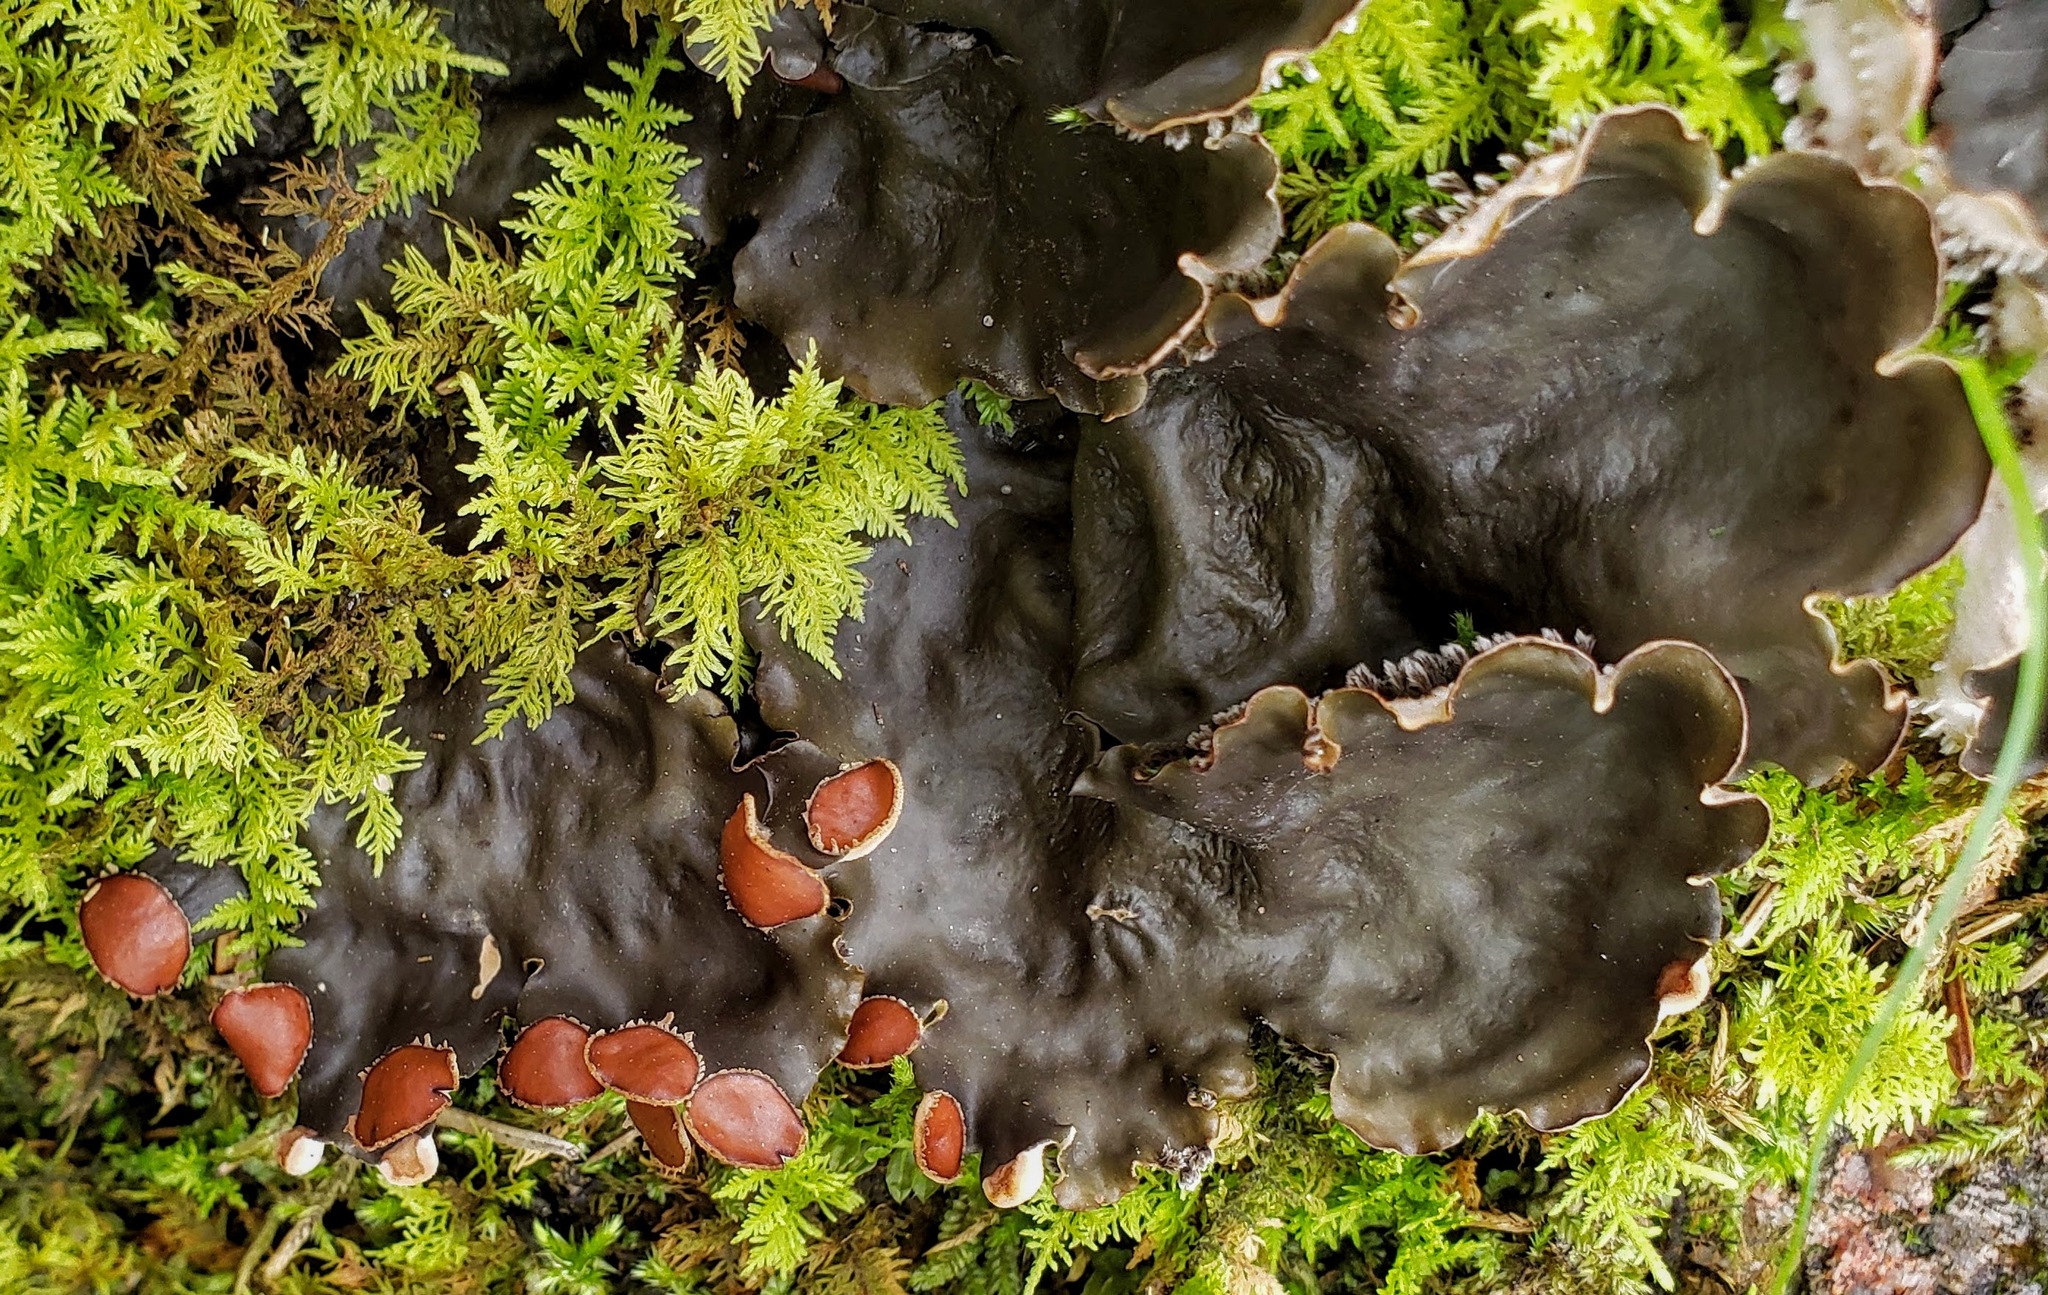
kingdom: Fungi
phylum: Ascomycota
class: Lecanoromycetes
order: Peltigerales
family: Peltigeraceae
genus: Peltigera
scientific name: Peltigera horizontalis
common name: Flat fruited pelt
